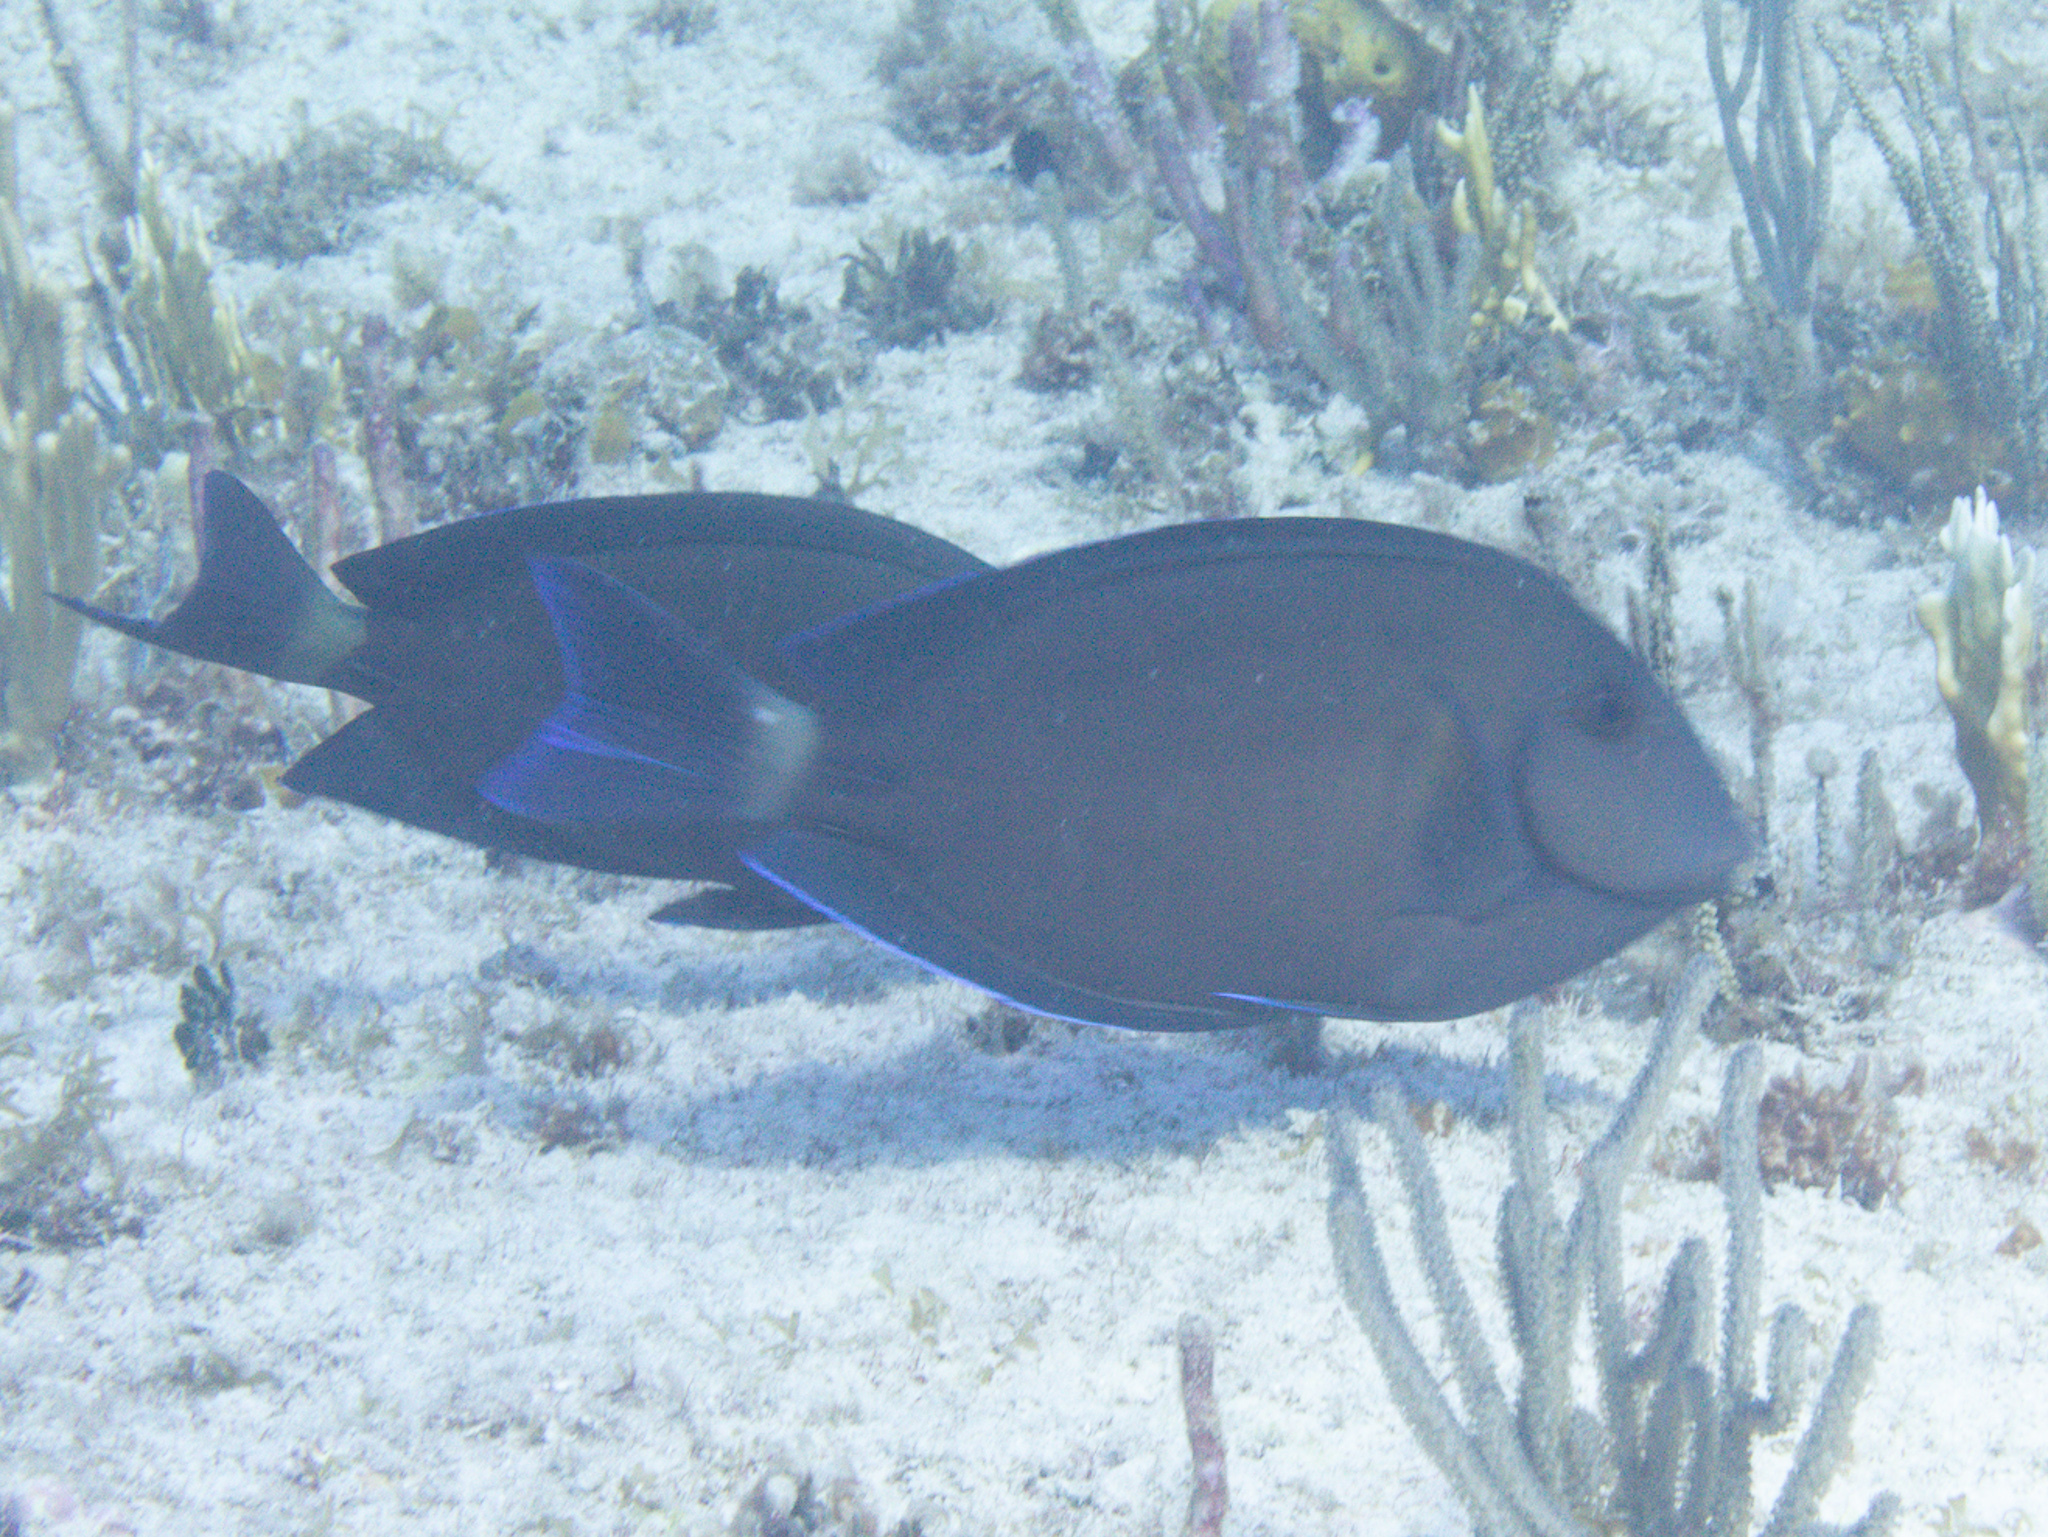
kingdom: Animalia
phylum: Chordata
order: Perciformes
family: Acanthuridae
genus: Acanthurus
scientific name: Acanthurus chirurgus
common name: Doctorfish
